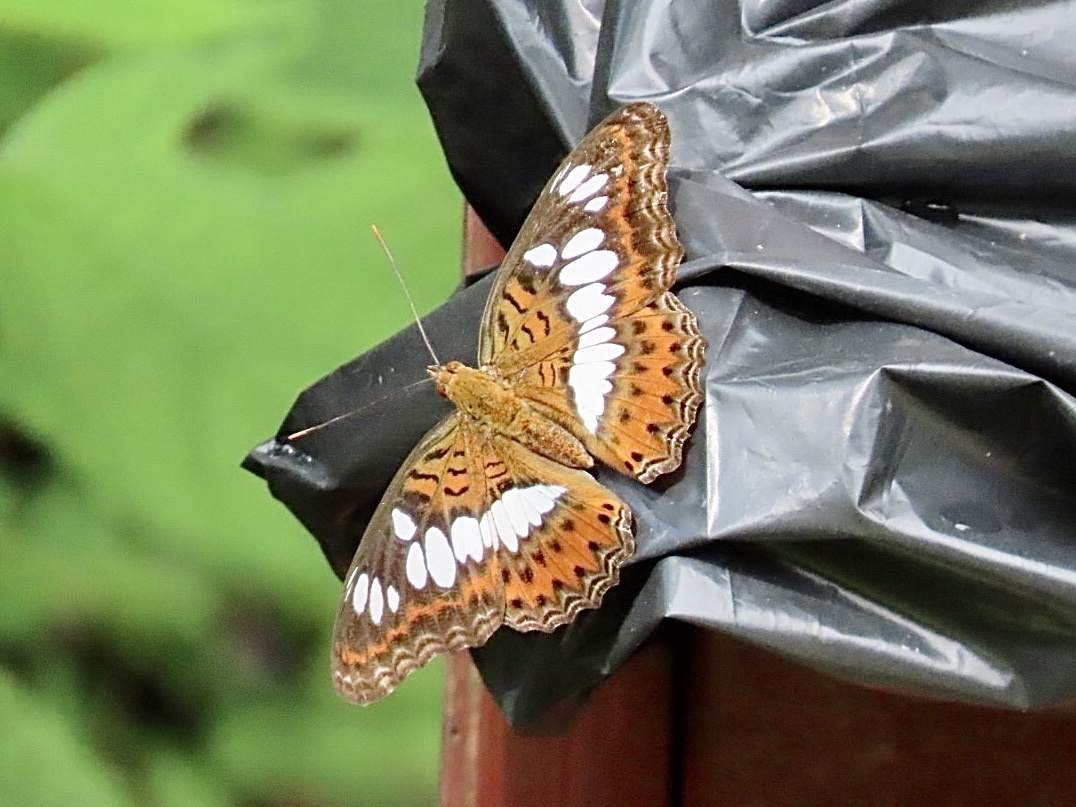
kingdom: Animalia
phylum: Arthropoda
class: Insecta
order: Lepidoptera
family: Nymphalidae
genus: Limenitis
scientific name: Limenitis Moduza procris
